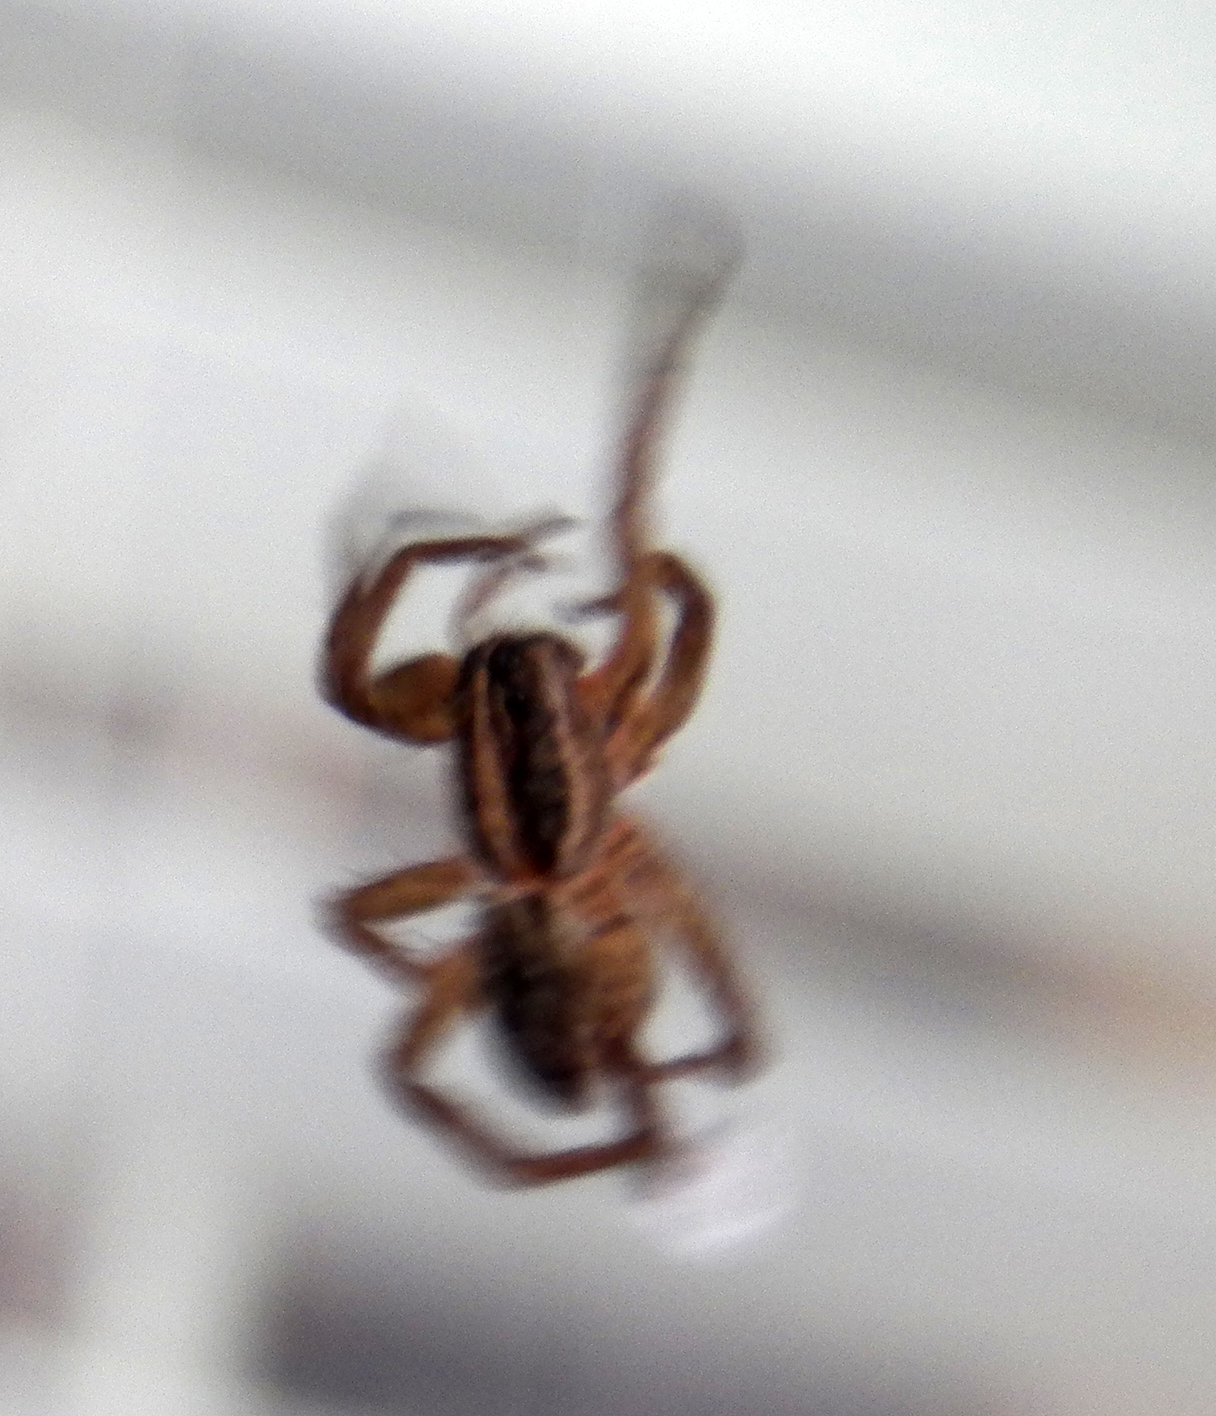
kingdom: Animalia
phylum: Arthropoda
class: Arachnida
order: Araneae
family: Lycosidae
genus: Tigrosa
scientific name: Tigrosa annexa
